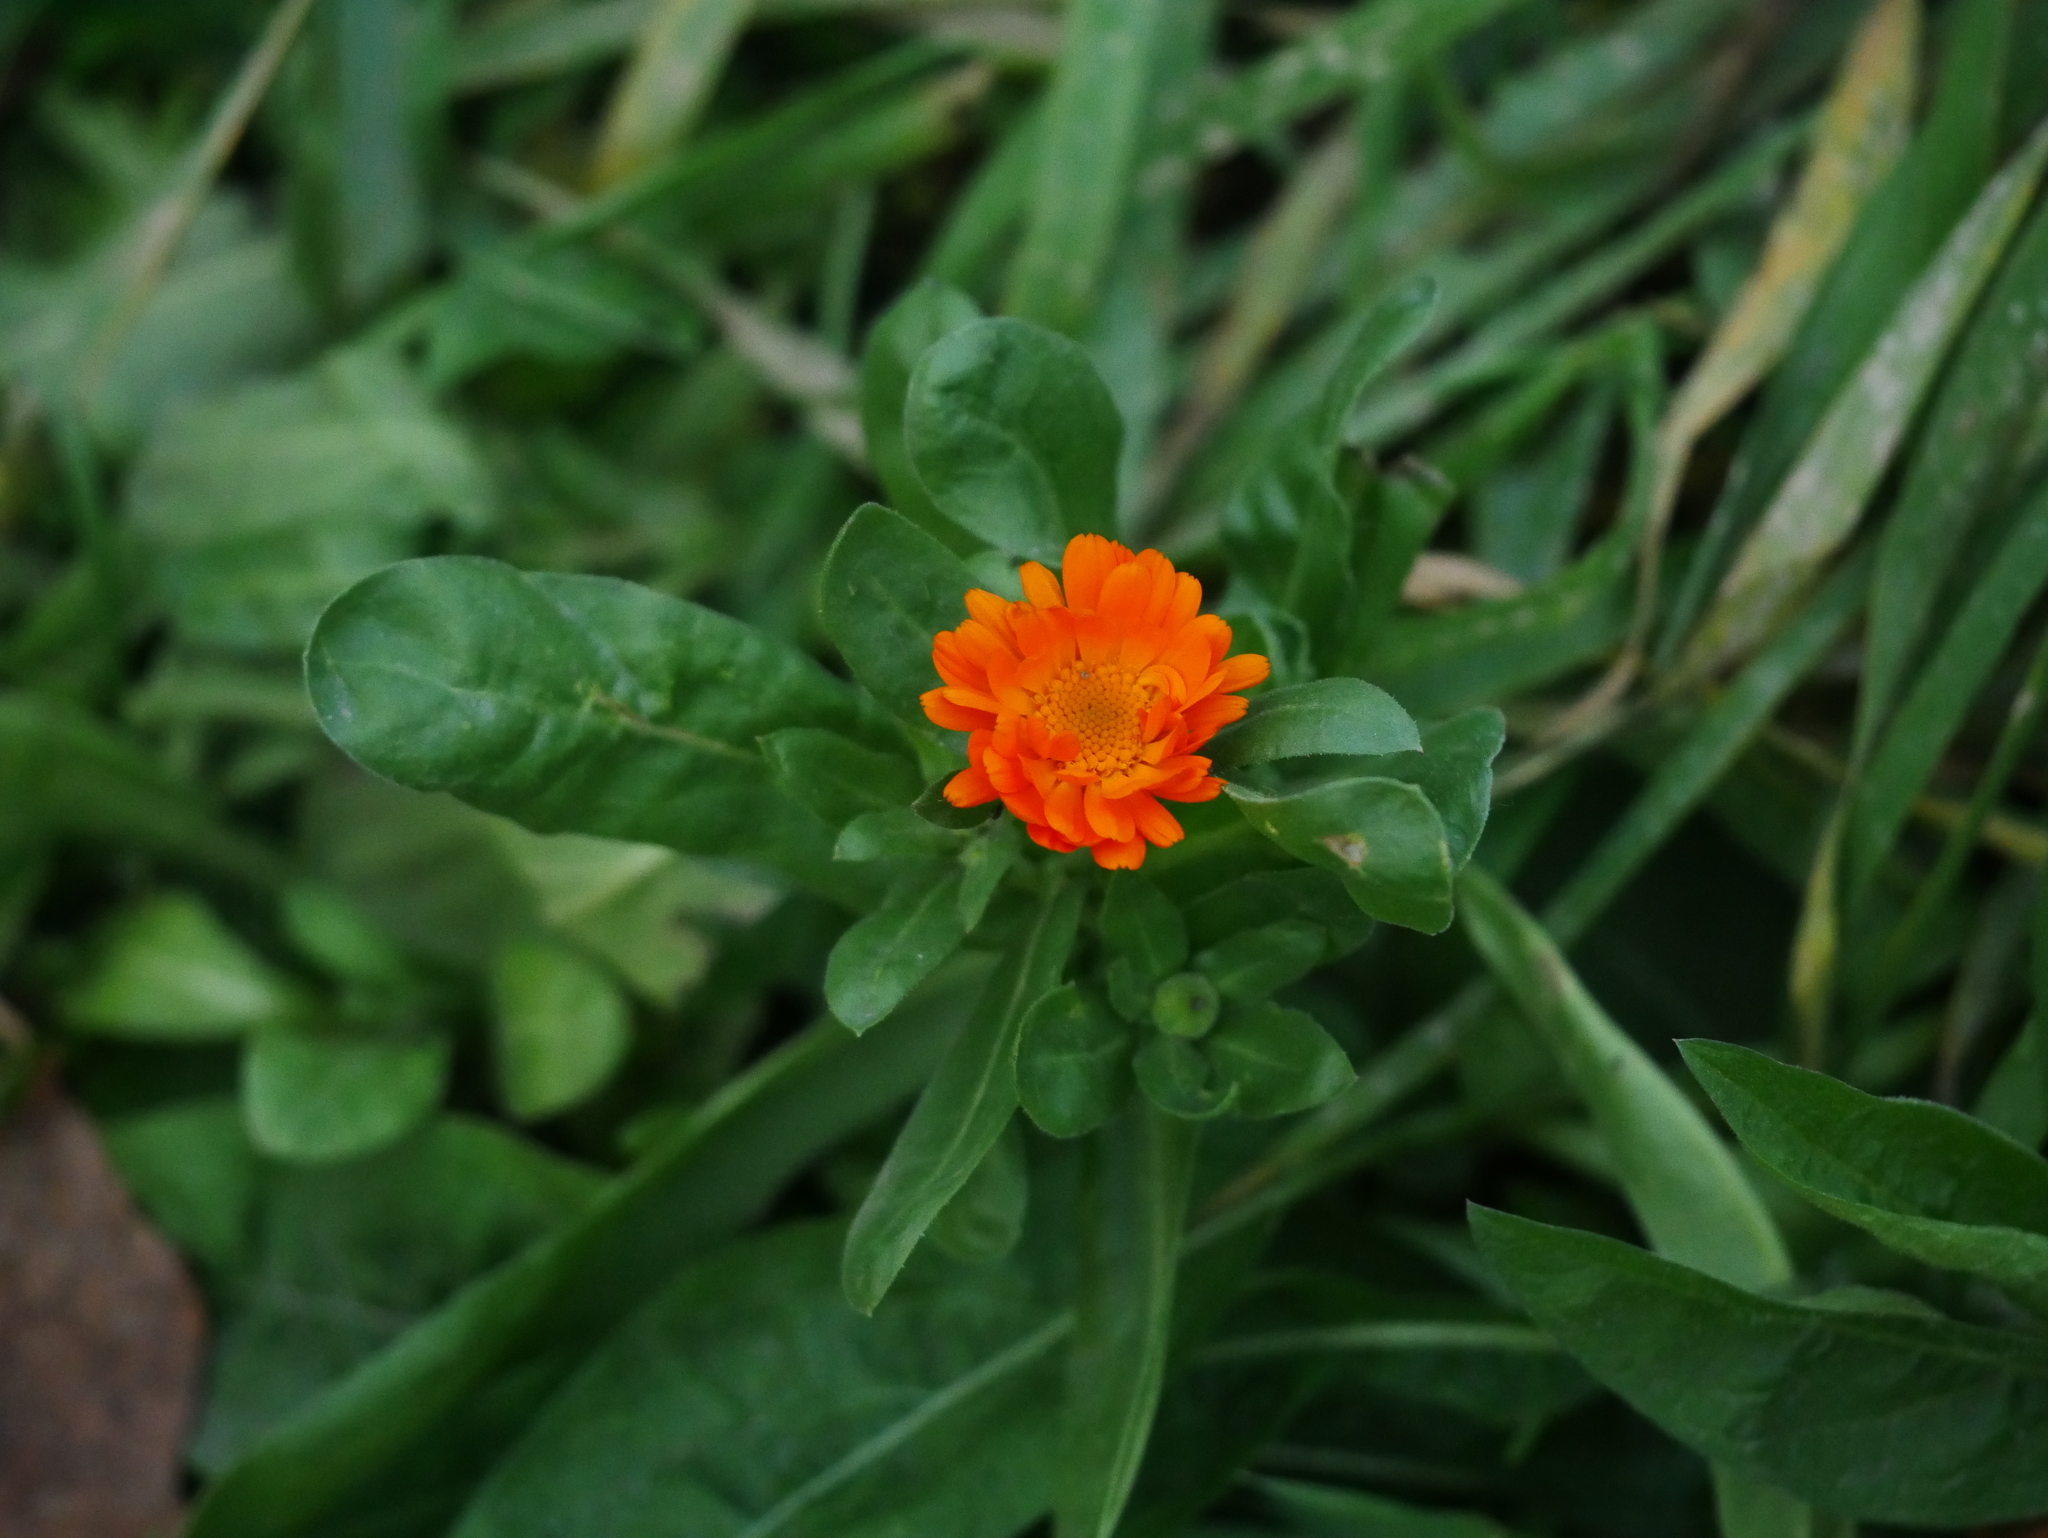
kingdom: Plantae
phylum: Tracheophyta
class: Magnoliopsida
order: Asterales
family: Asteraceae
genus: Calendula
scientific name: Calendula officinalis
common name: Pot marigold
